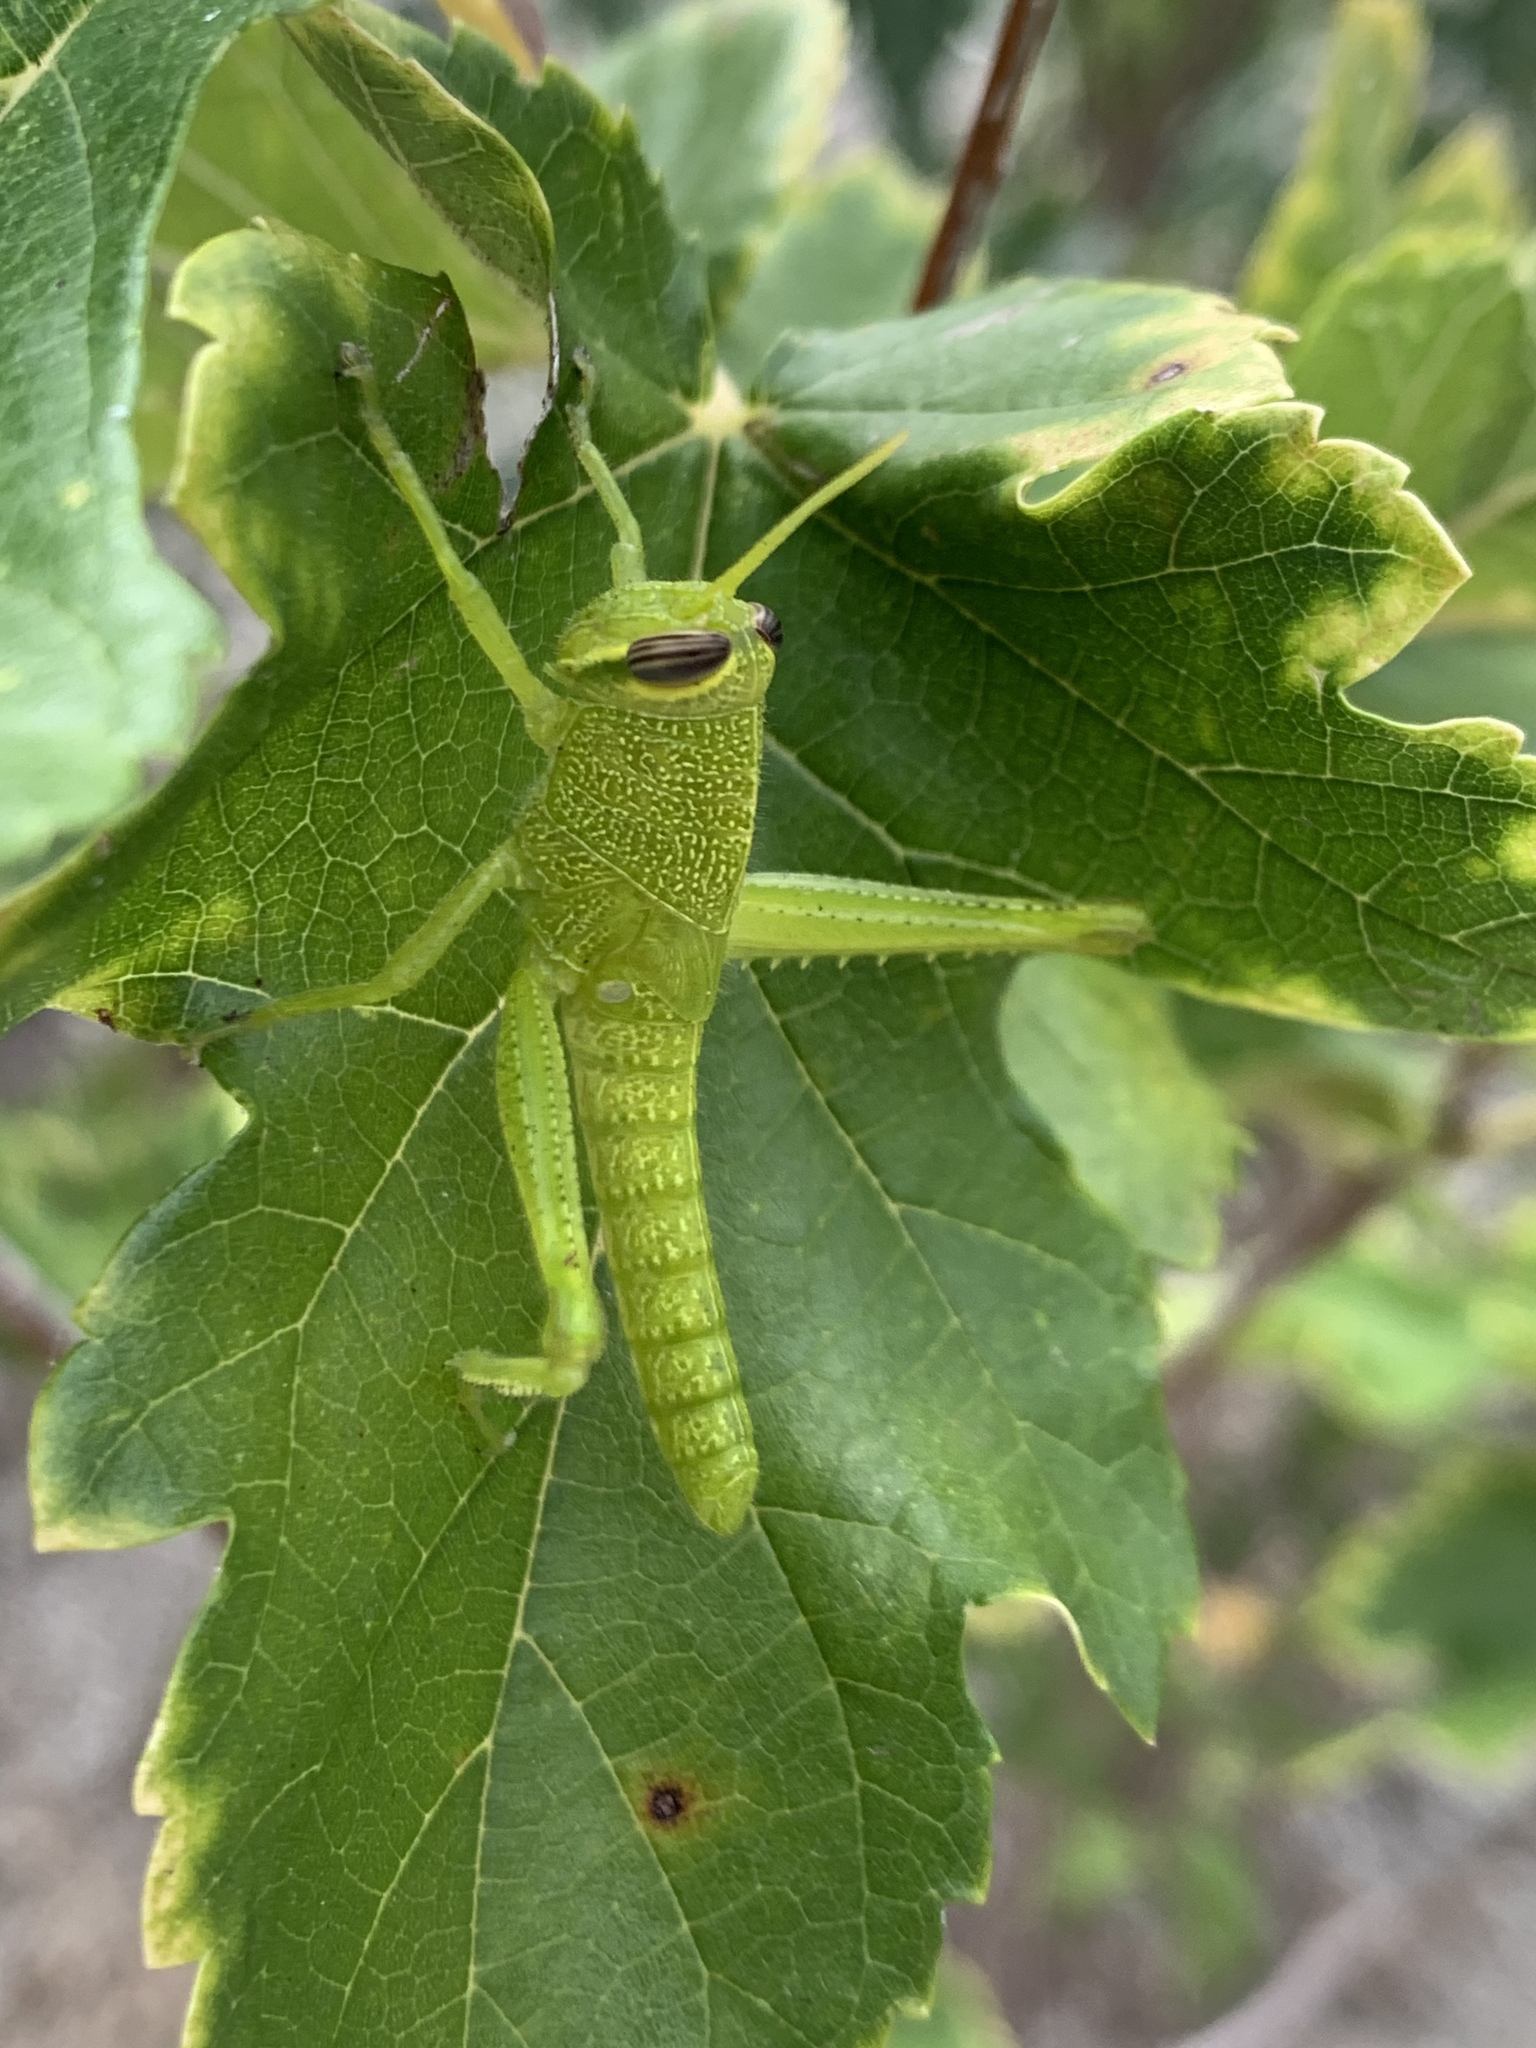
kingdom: Animalia
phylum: Arthropoda
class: Insecta
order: Orthoptera
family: Acrididae
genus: Schistocerca
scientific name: Schistocerca obscura
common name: Obscure bird grasshopper
